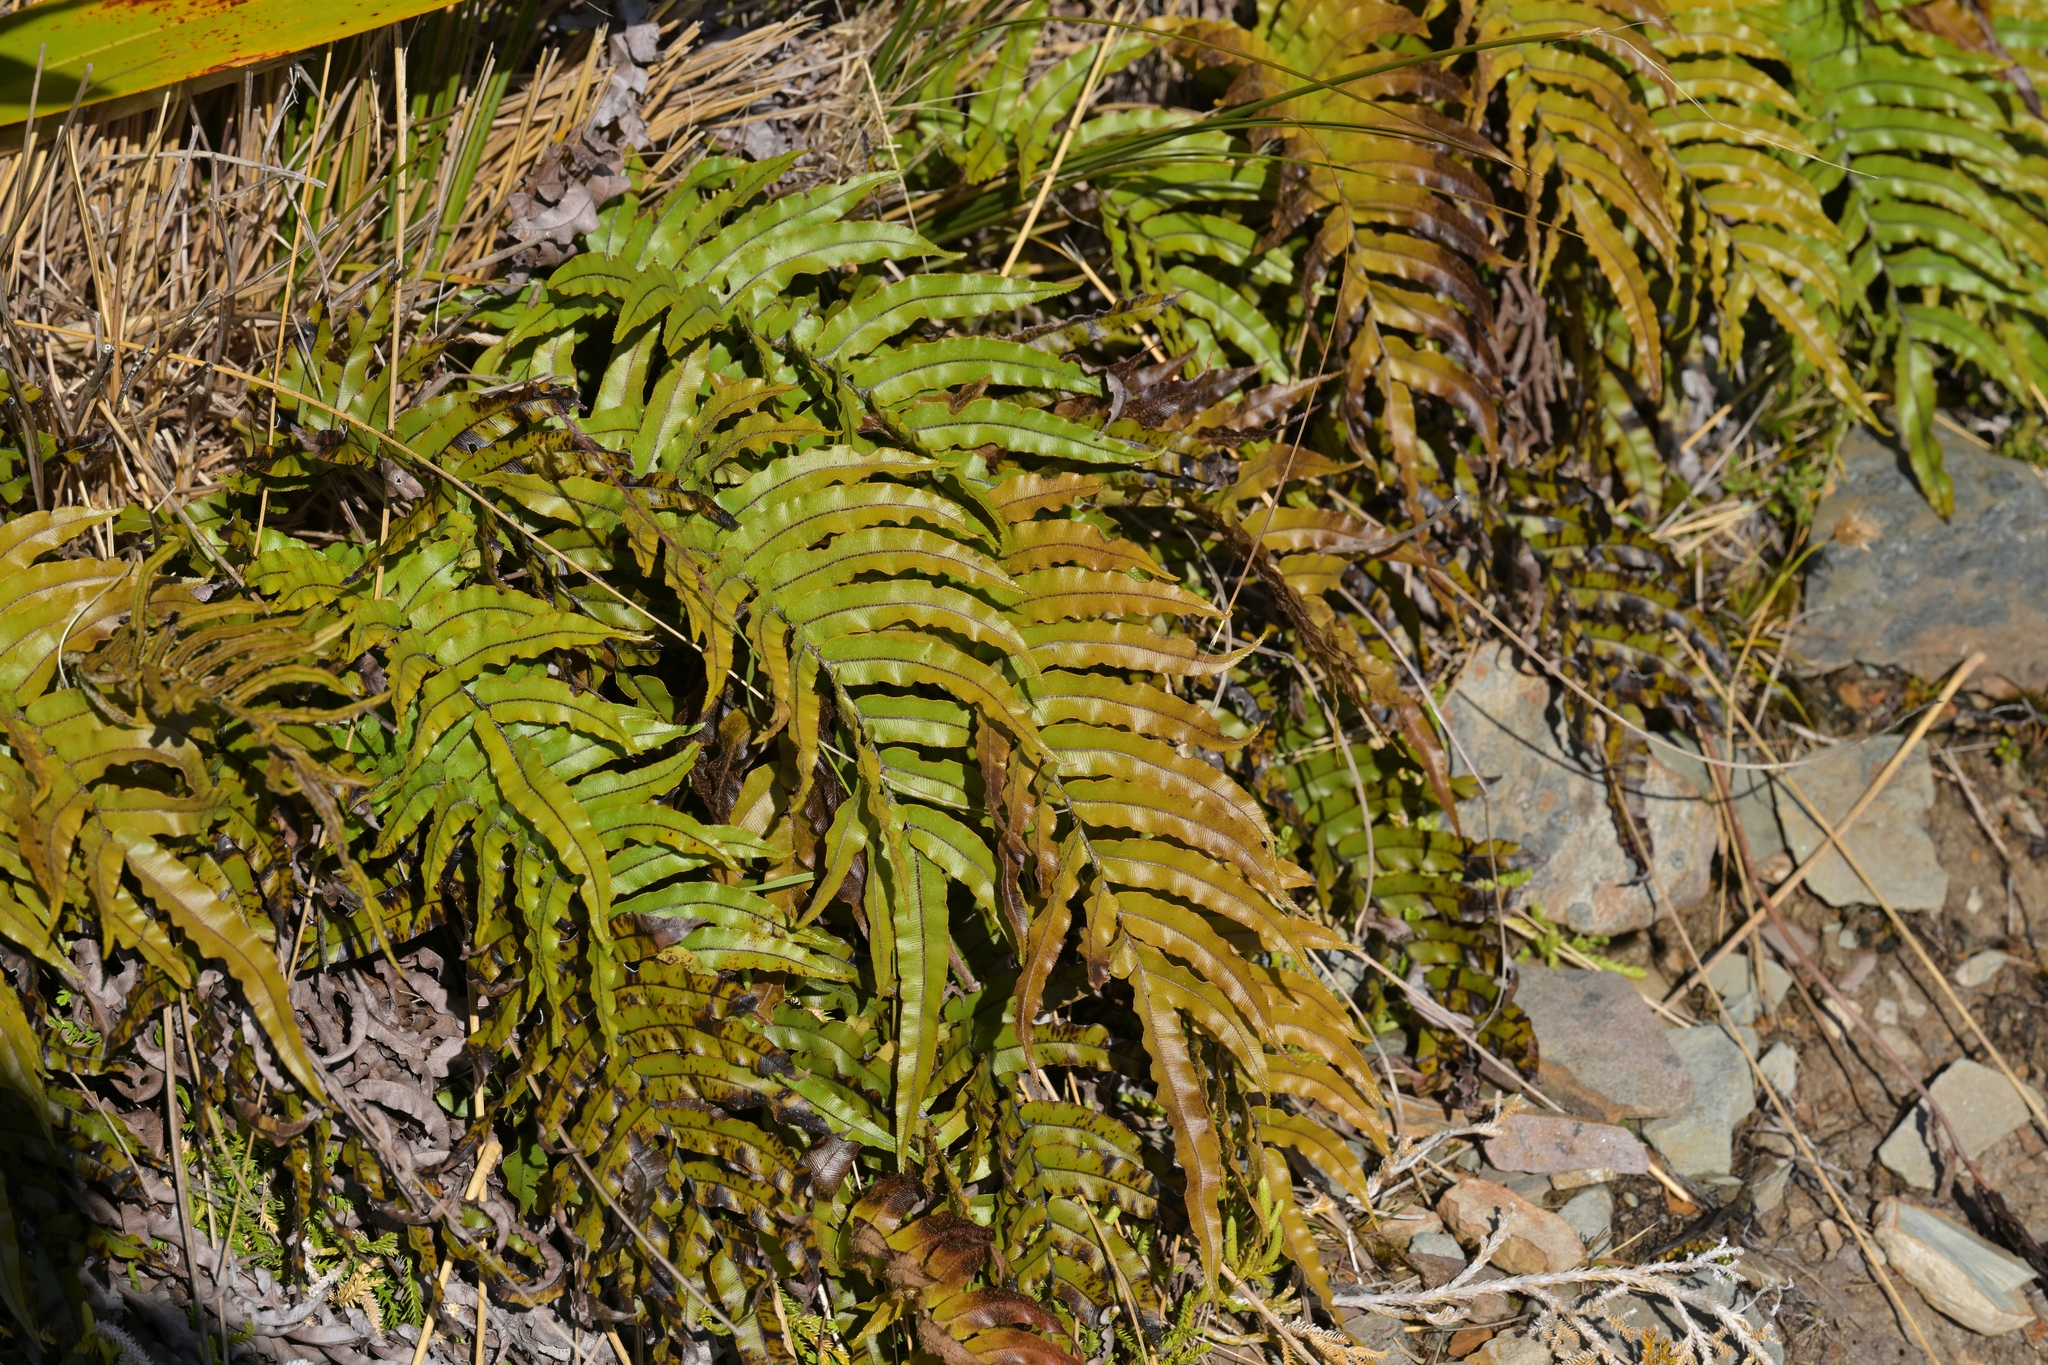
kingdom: Plantae
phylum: Tracheophyta
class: Polypodiopsida
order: Polypodiales
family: Blechnaceae
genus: Parablechnum
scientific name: Parablechnum montanum
